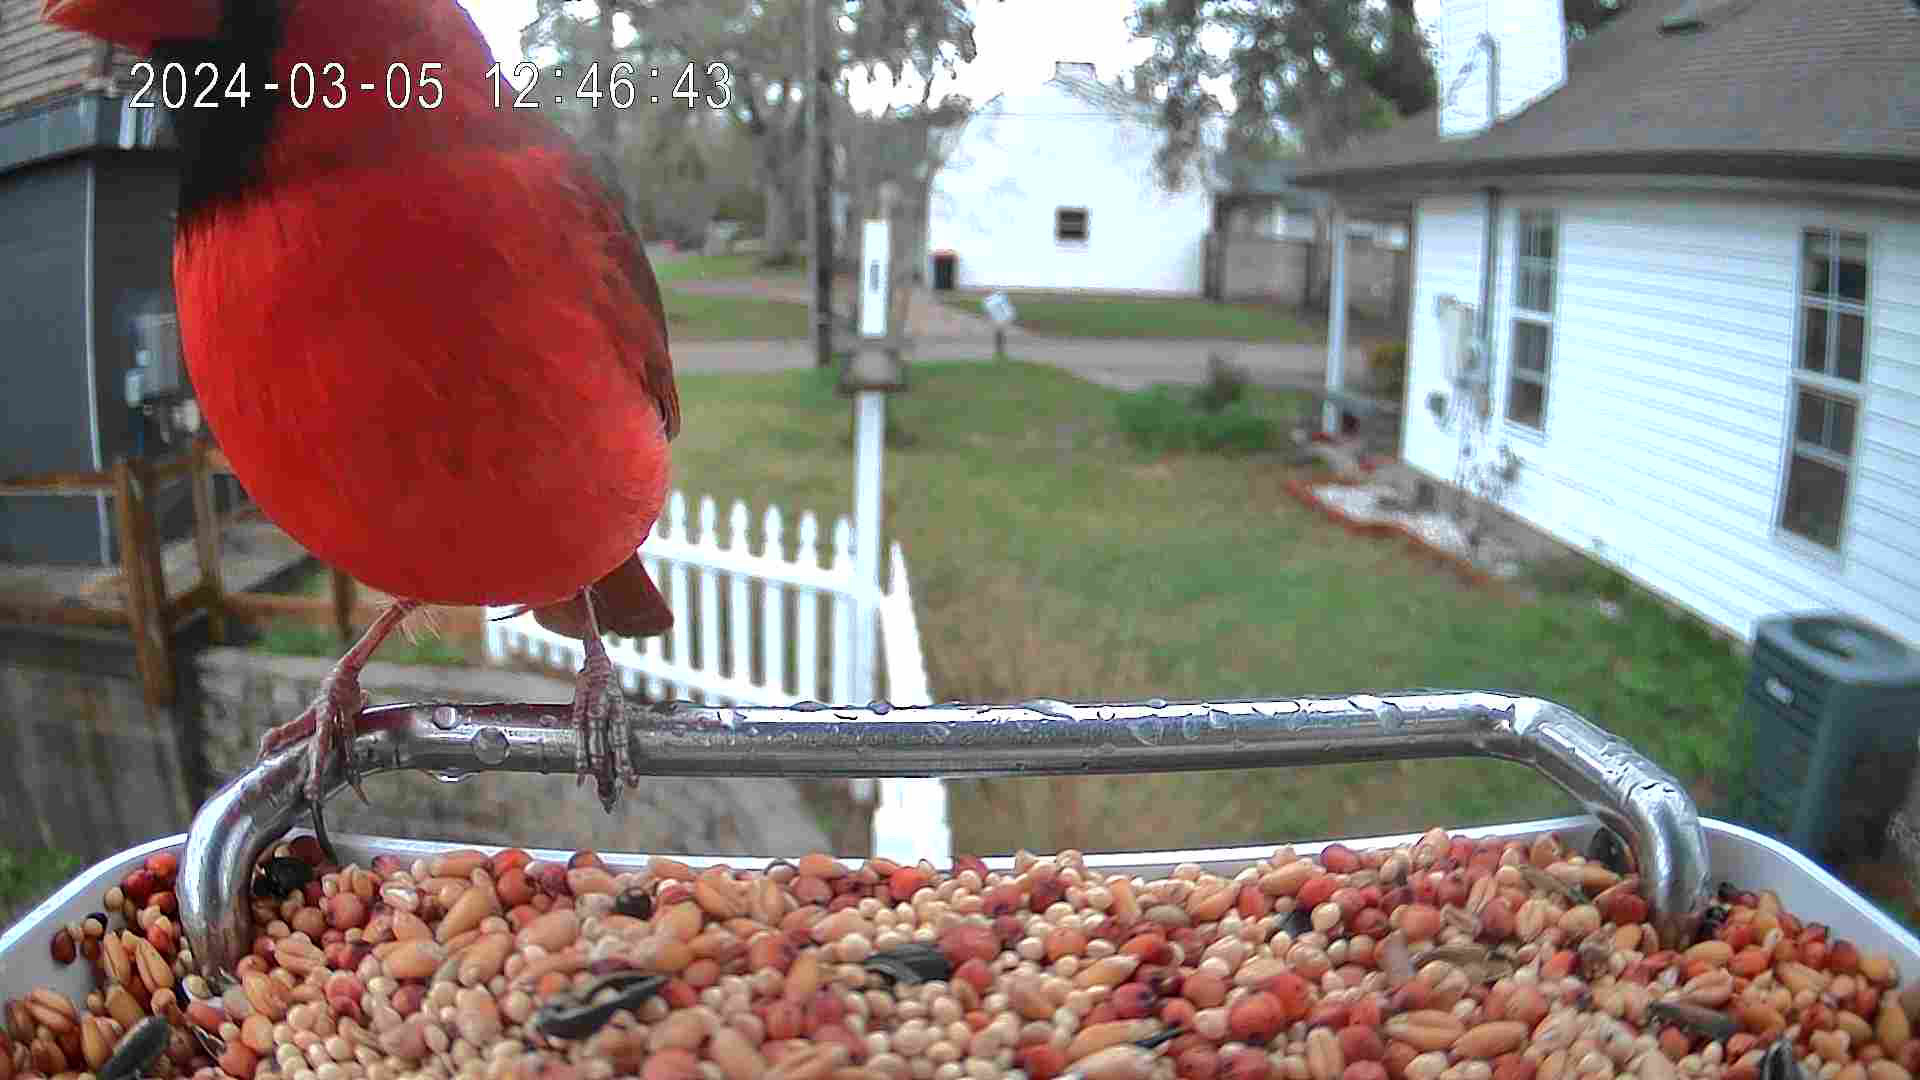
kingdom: Animalia
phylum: Chordata
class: Aves
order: Passeriformes
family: Cardinalidae
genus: Cardinalis
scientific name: Cardinalis cardinalis
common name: Northern cardinal
